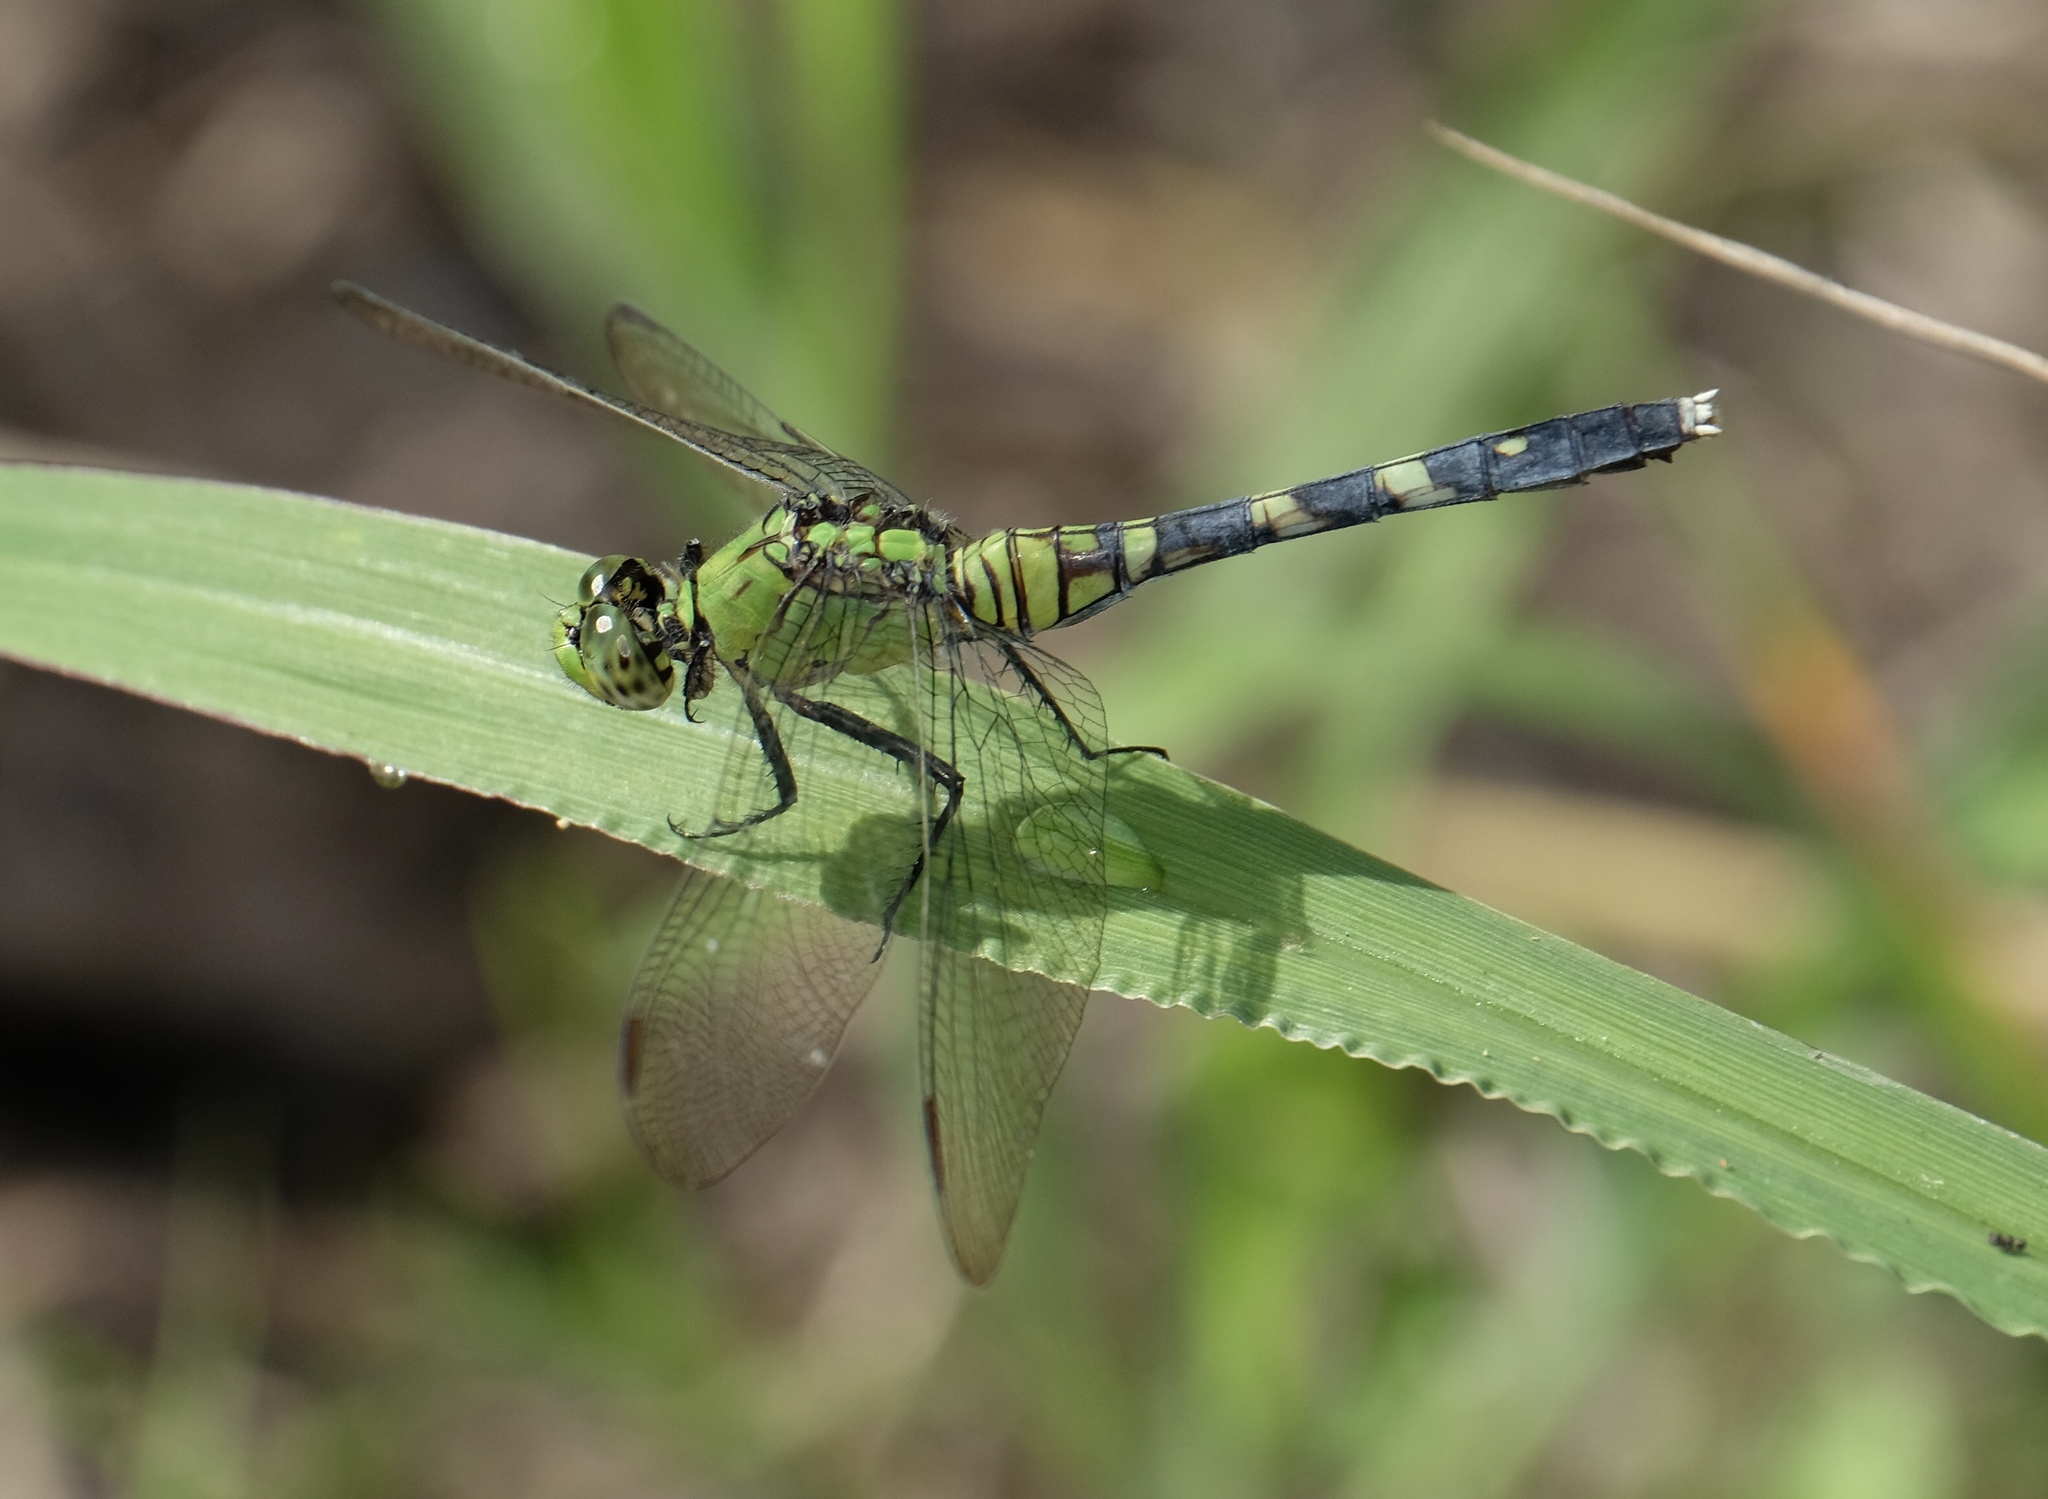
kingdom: Animalia
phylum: Arthropoda
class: Insecta
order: Odonata
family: Libellulidae
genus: Erythemis
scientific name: Erythemis simplicicollis
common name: Eastern pondhawk
